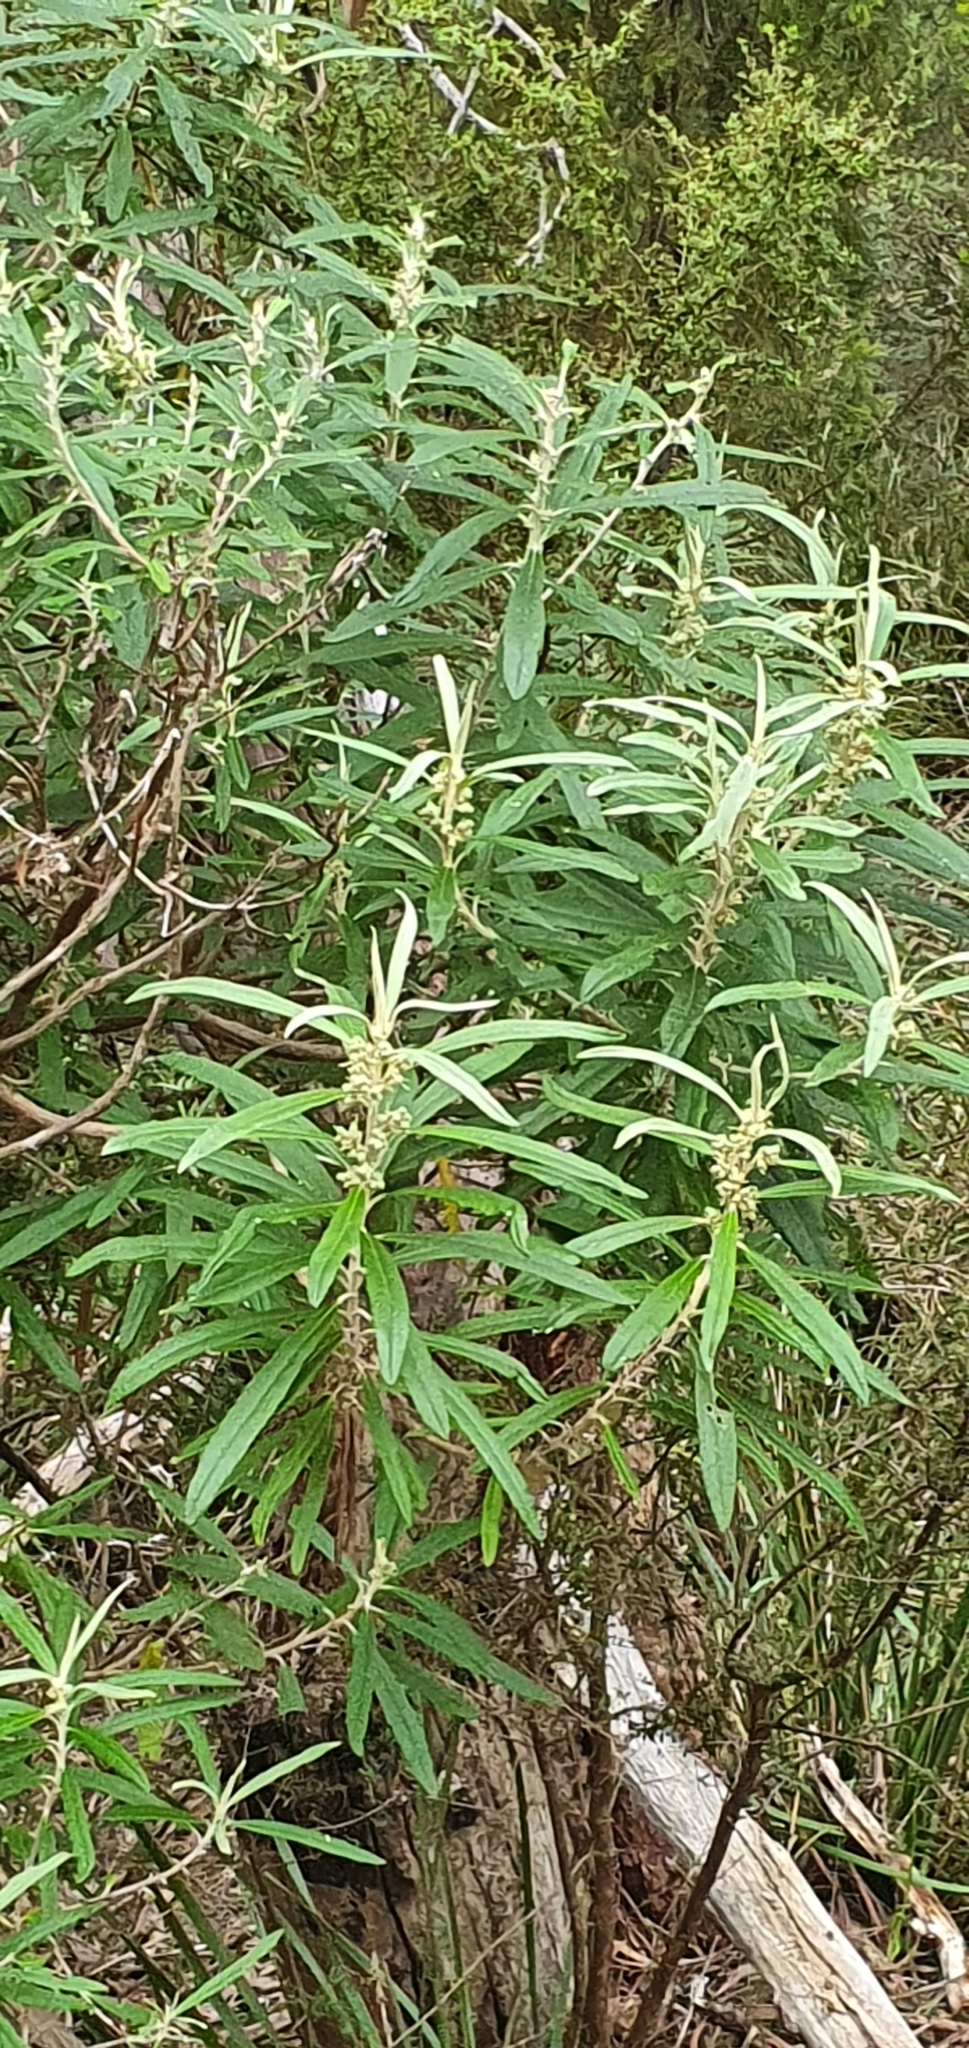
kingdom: Plantae
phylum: Tracheophyta
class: Magnoliopsida
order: Asterales
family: Asteraceae
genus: Bedfordia
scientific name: Bedfordia salicina
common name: Blanketleaf
